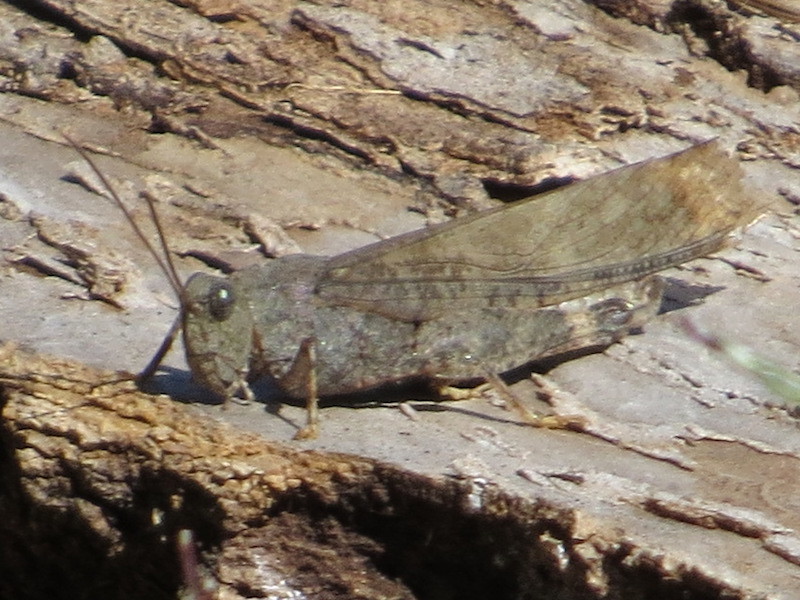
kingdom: Animalia
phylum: Arthropoda
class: Insecta
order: Orthoptera
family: Acrididae
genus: Dissosteira
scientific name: Dissosteira carolina
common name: Carolina grasshopper
